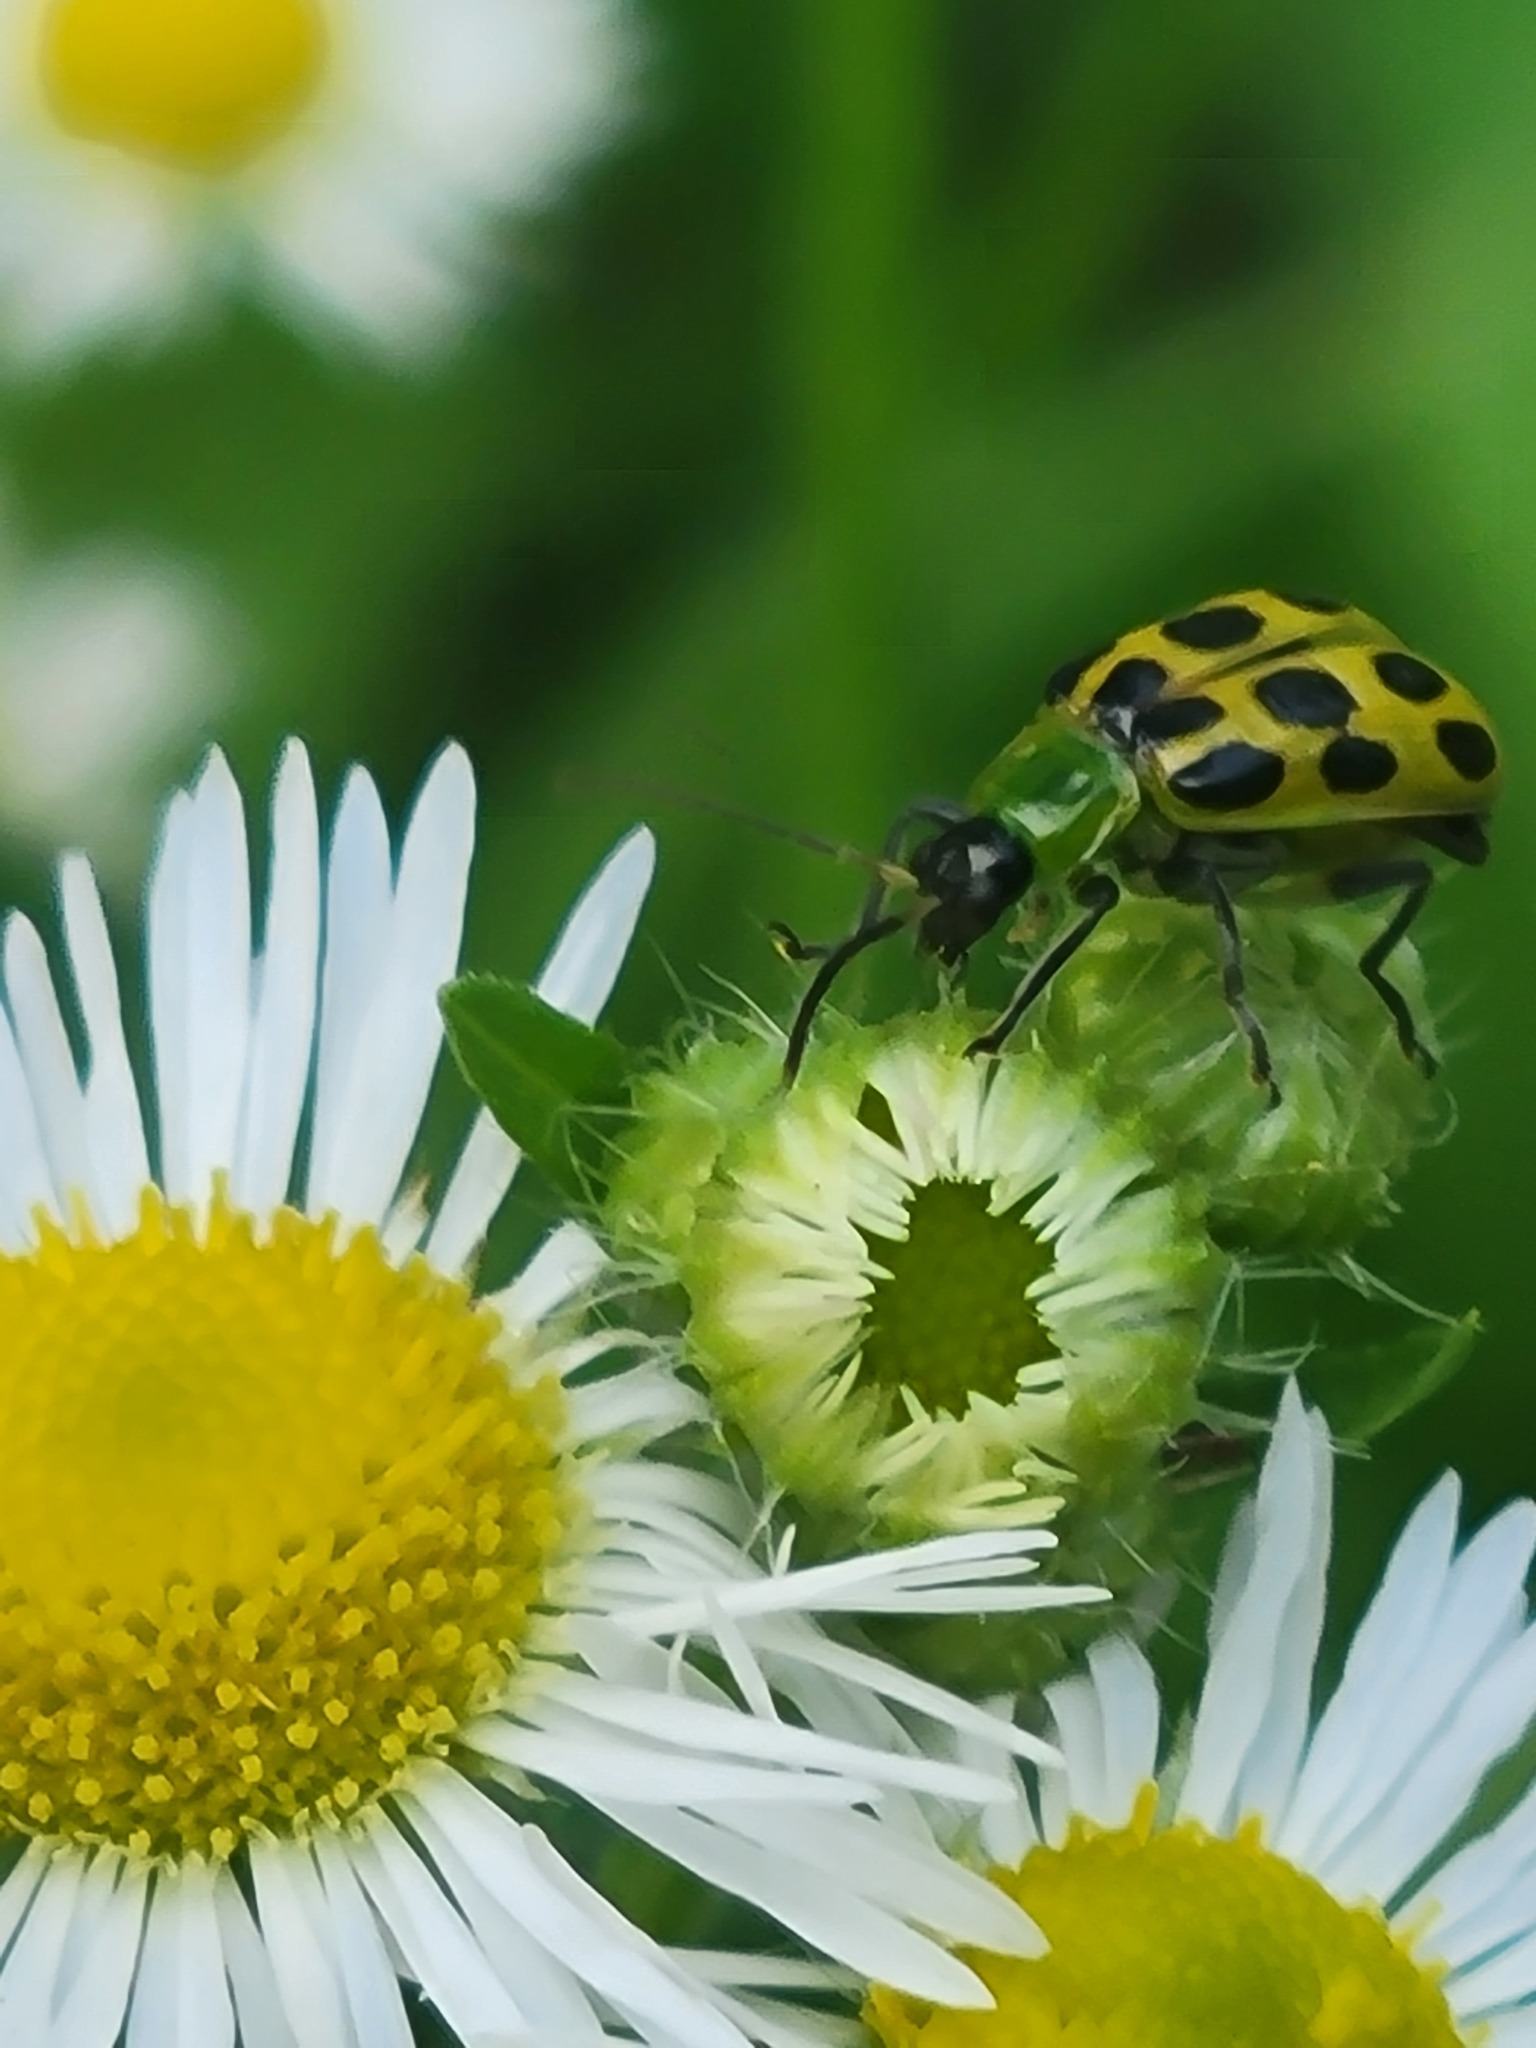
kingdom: Animalia
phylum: Arthropoda
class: Insecta
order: Coleoptera
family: Chrysomelidae
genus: Diabrotica
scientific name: Diabrotica undecimpunctata
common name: Spotted cucumber beetle
